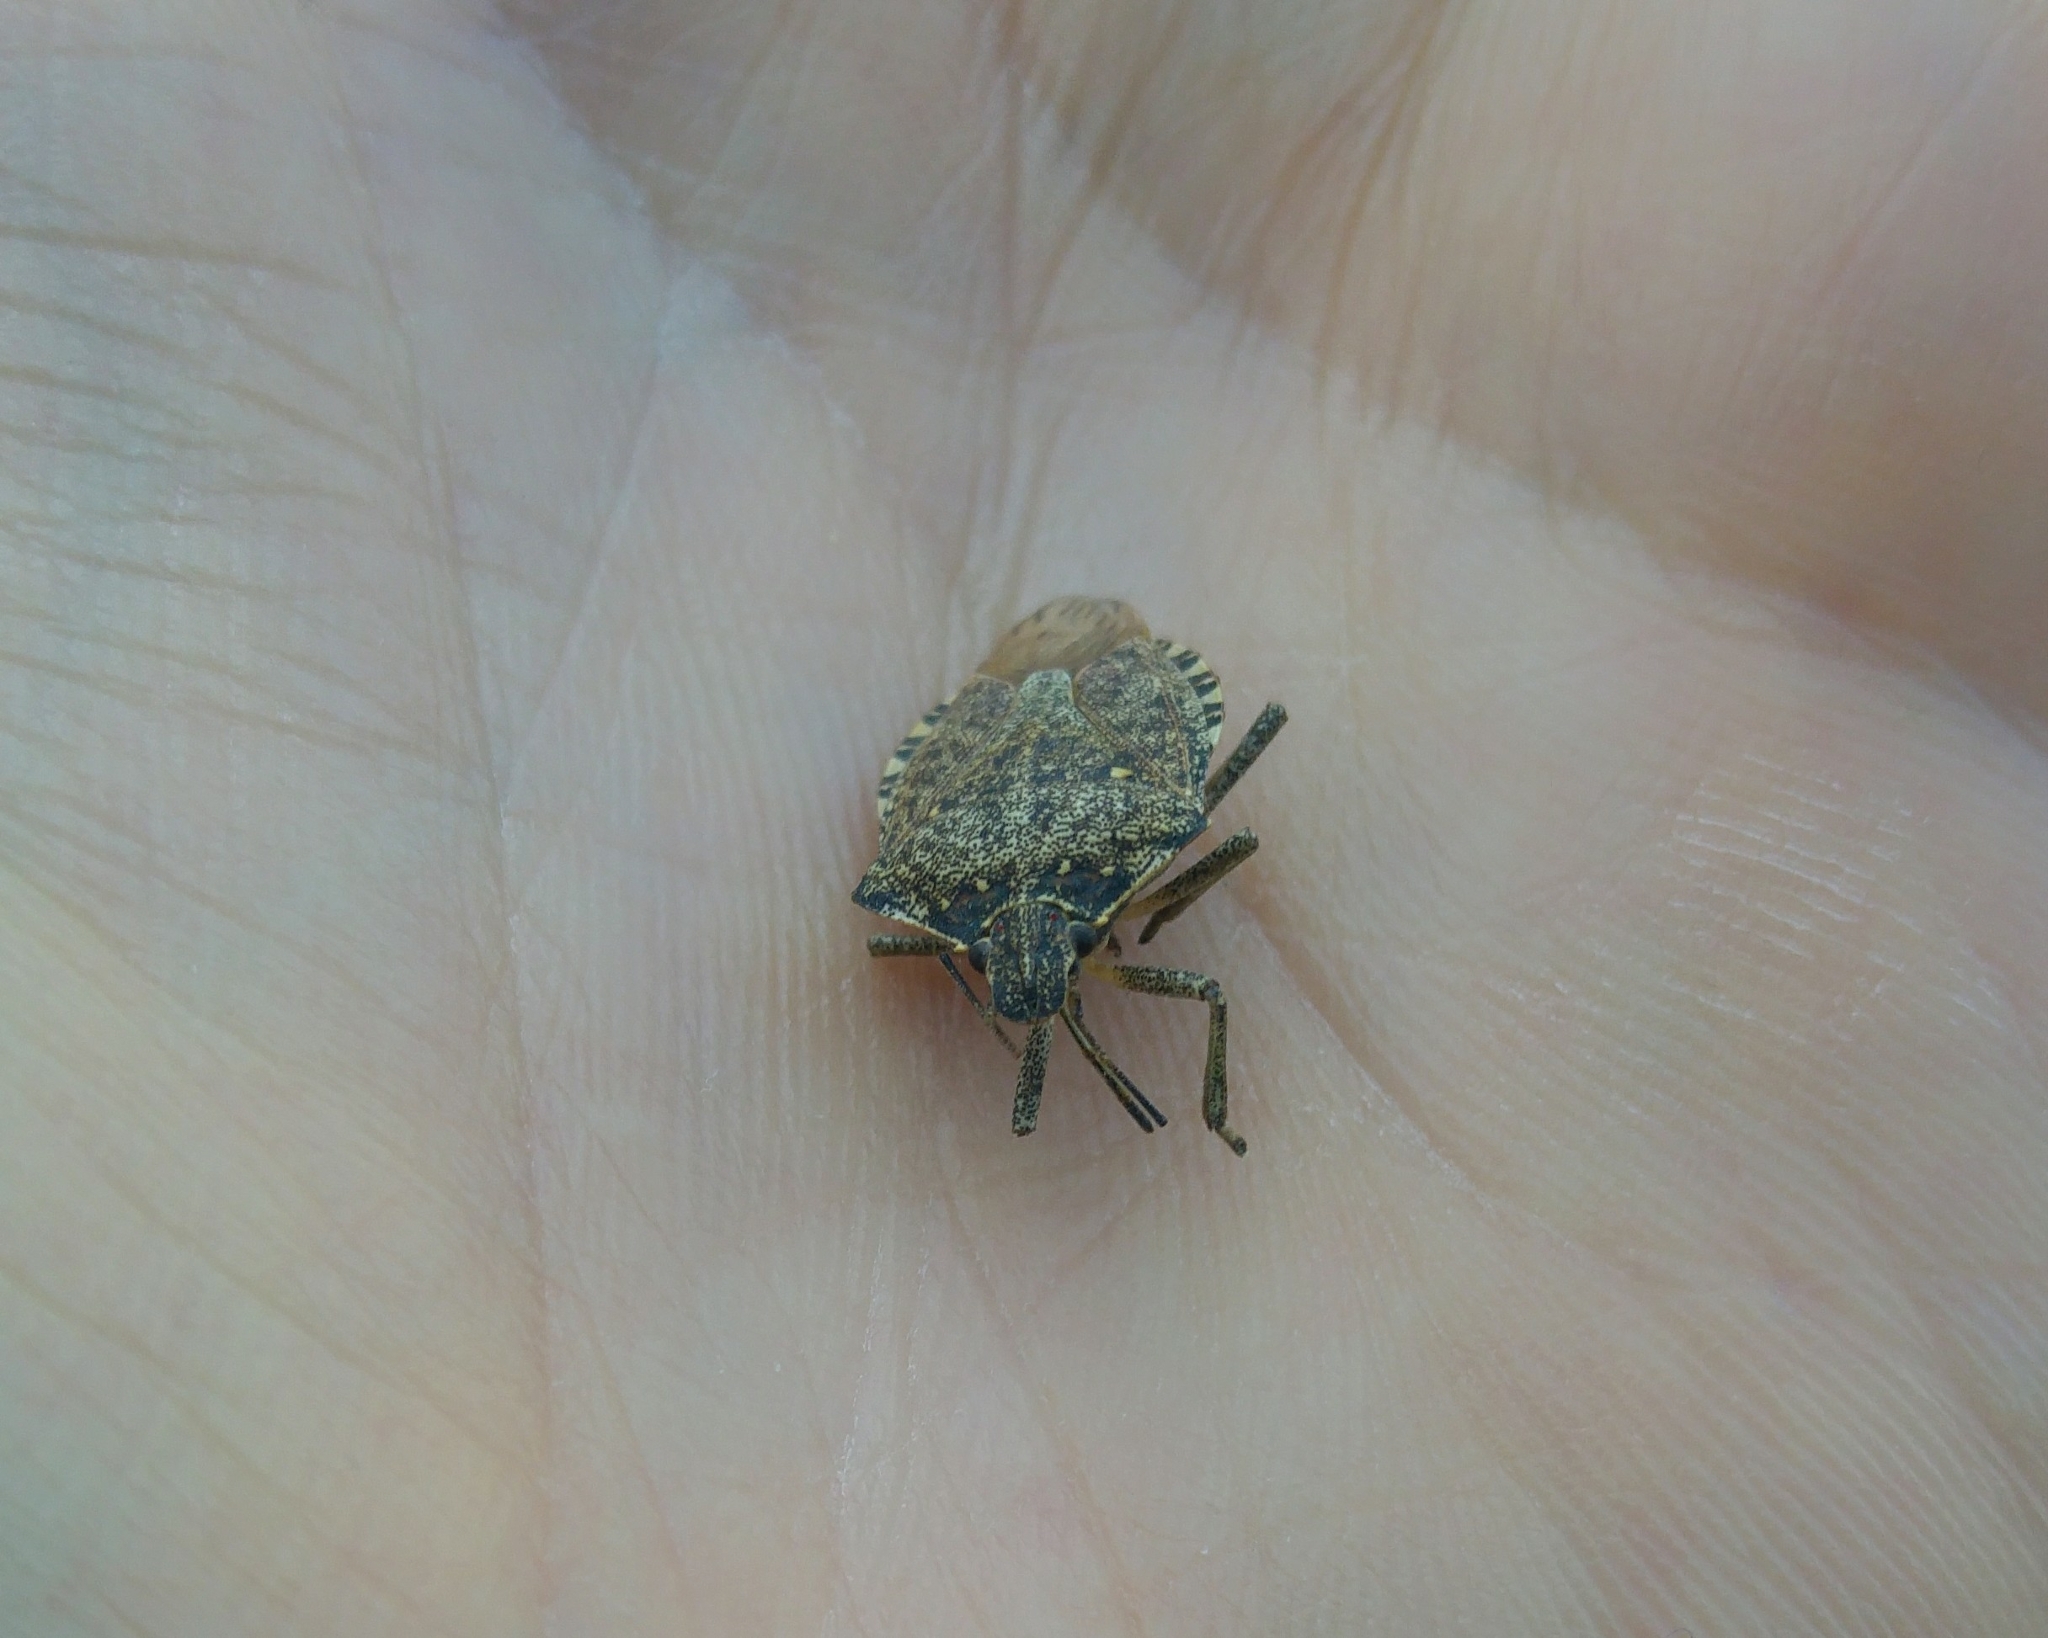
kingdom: Animalia
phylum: Arthropoda
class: Insecta
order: Hemiptera
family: Pentatomidae
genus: Halyomorpha
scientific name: Halyomorpha halys
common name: Brown marmorated stink bug
